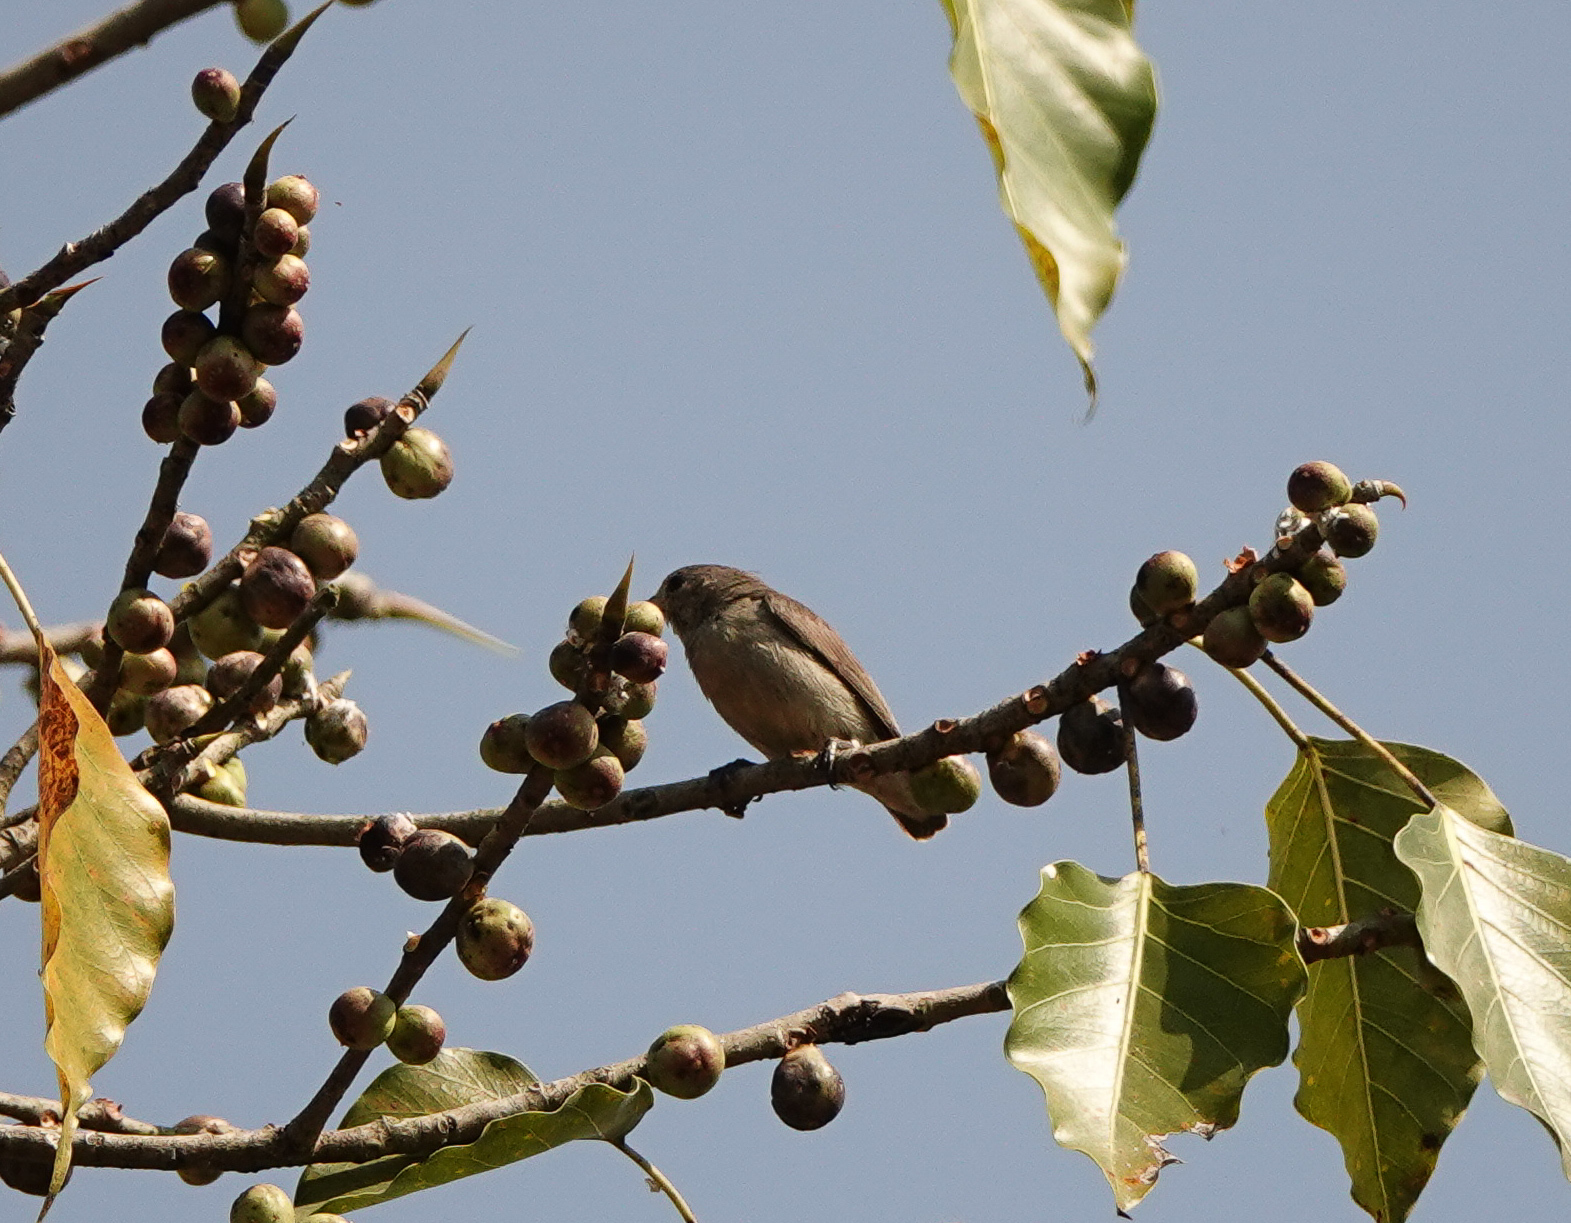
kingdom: Animalia
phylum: Chordata
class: Aves
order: Passeriformes
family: Dicaeidae
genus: Dicaeum
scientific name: Dicaeum erythrorhynchos
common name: Pale-billed flowerpecker
